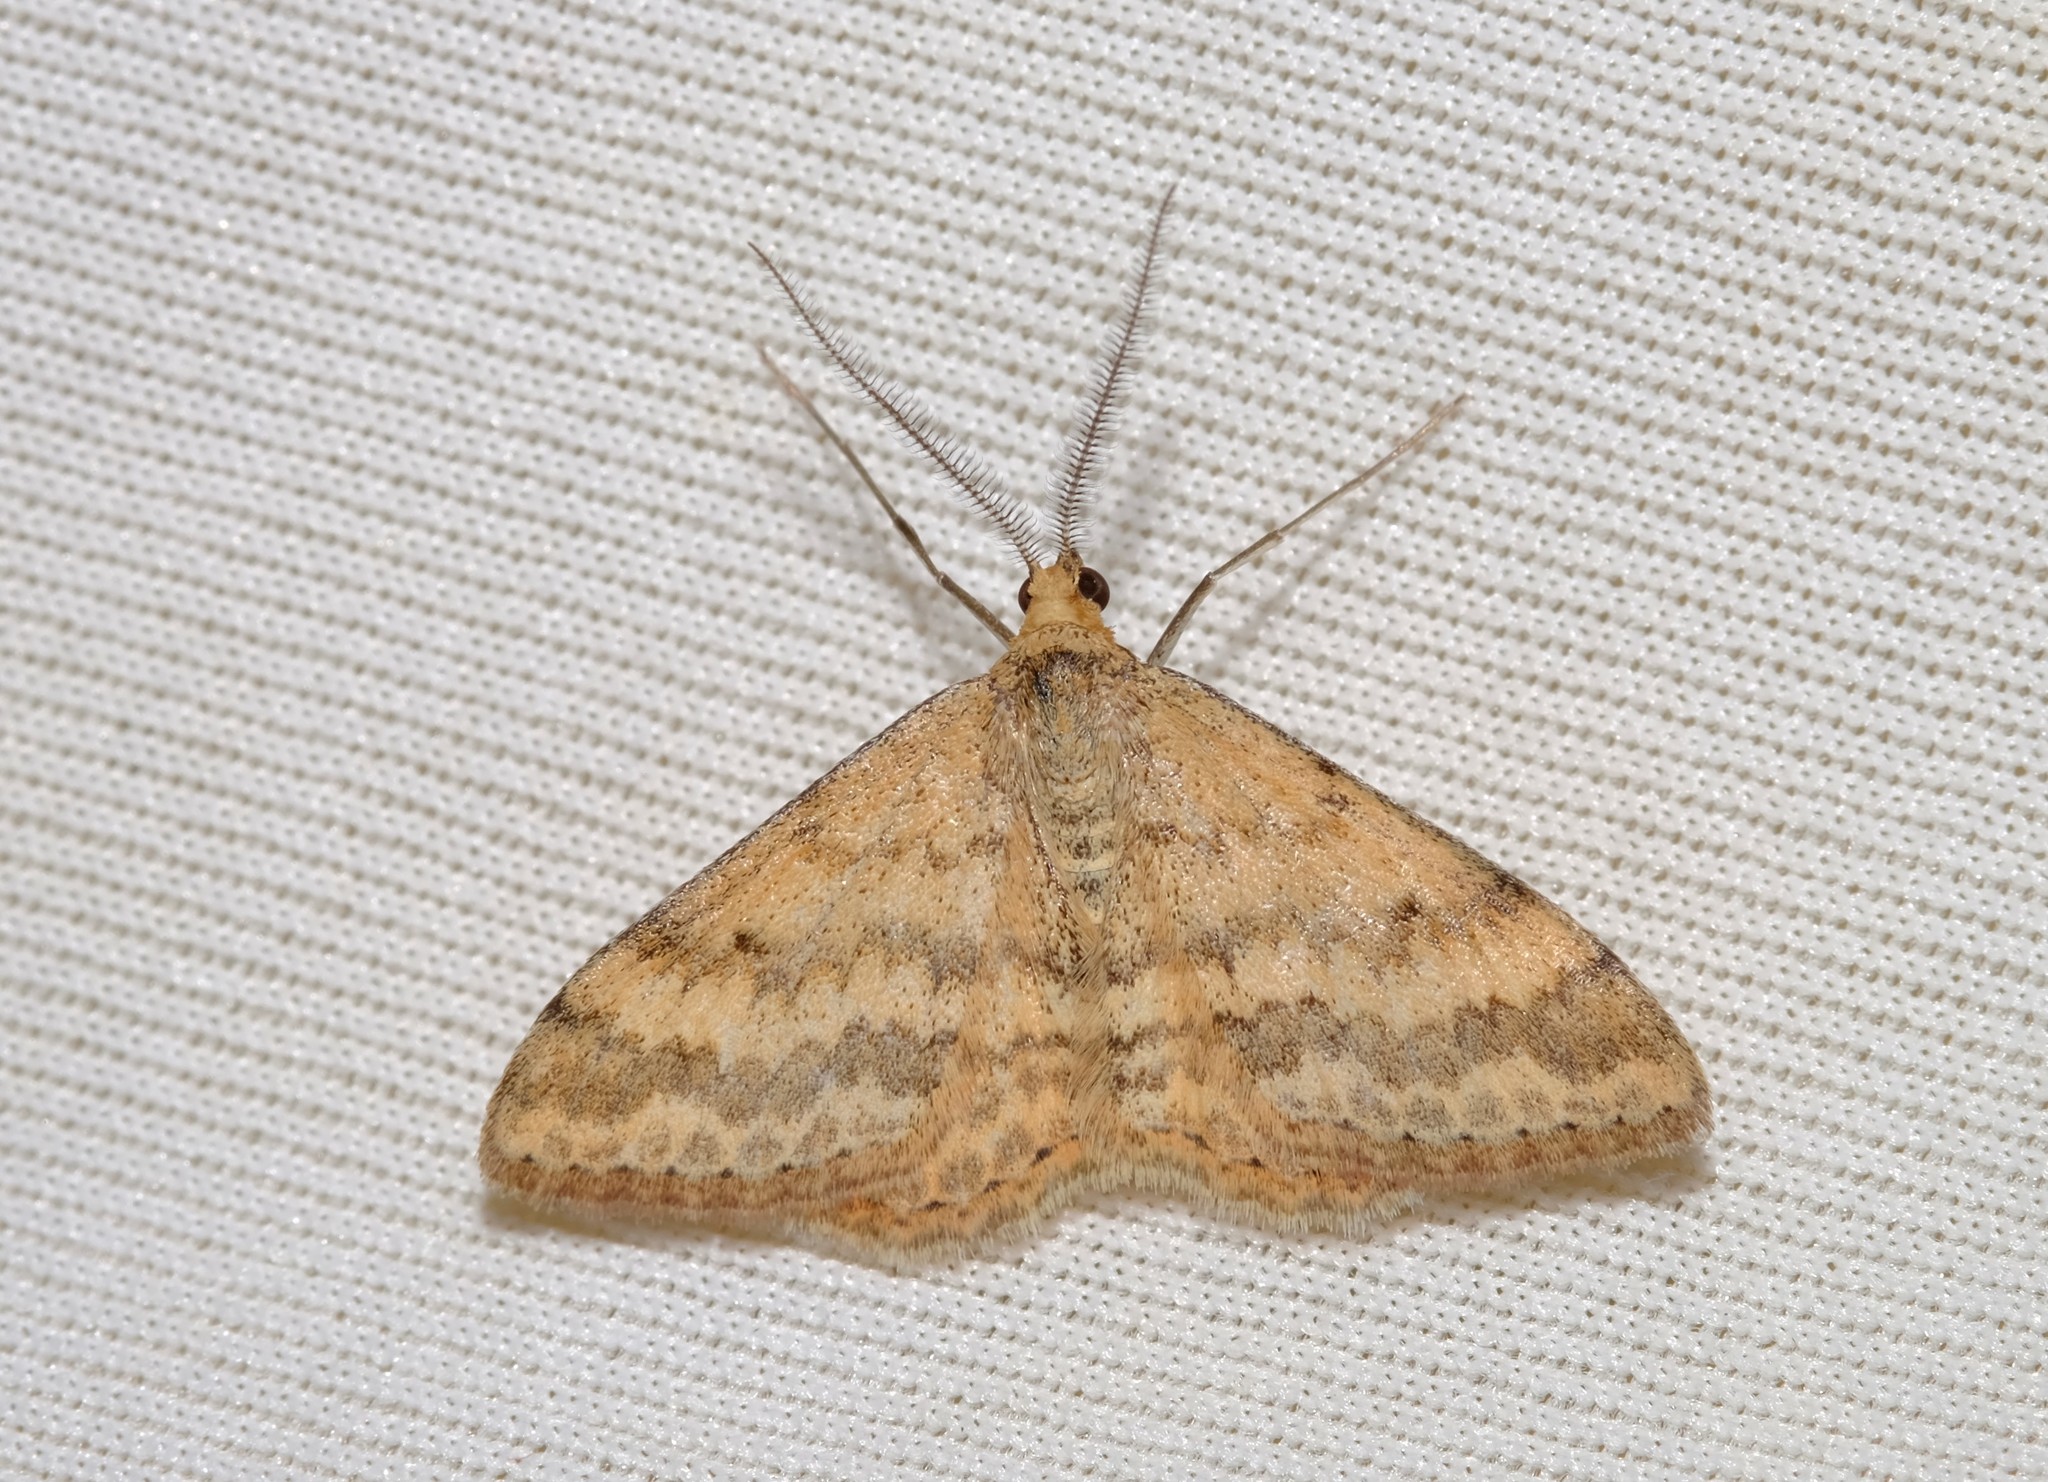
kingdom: Animalia
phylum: Arthropoda
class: Insecta
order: Lepidoptera
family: Geometridae
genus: Scopula
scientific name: Scopula rubraria
